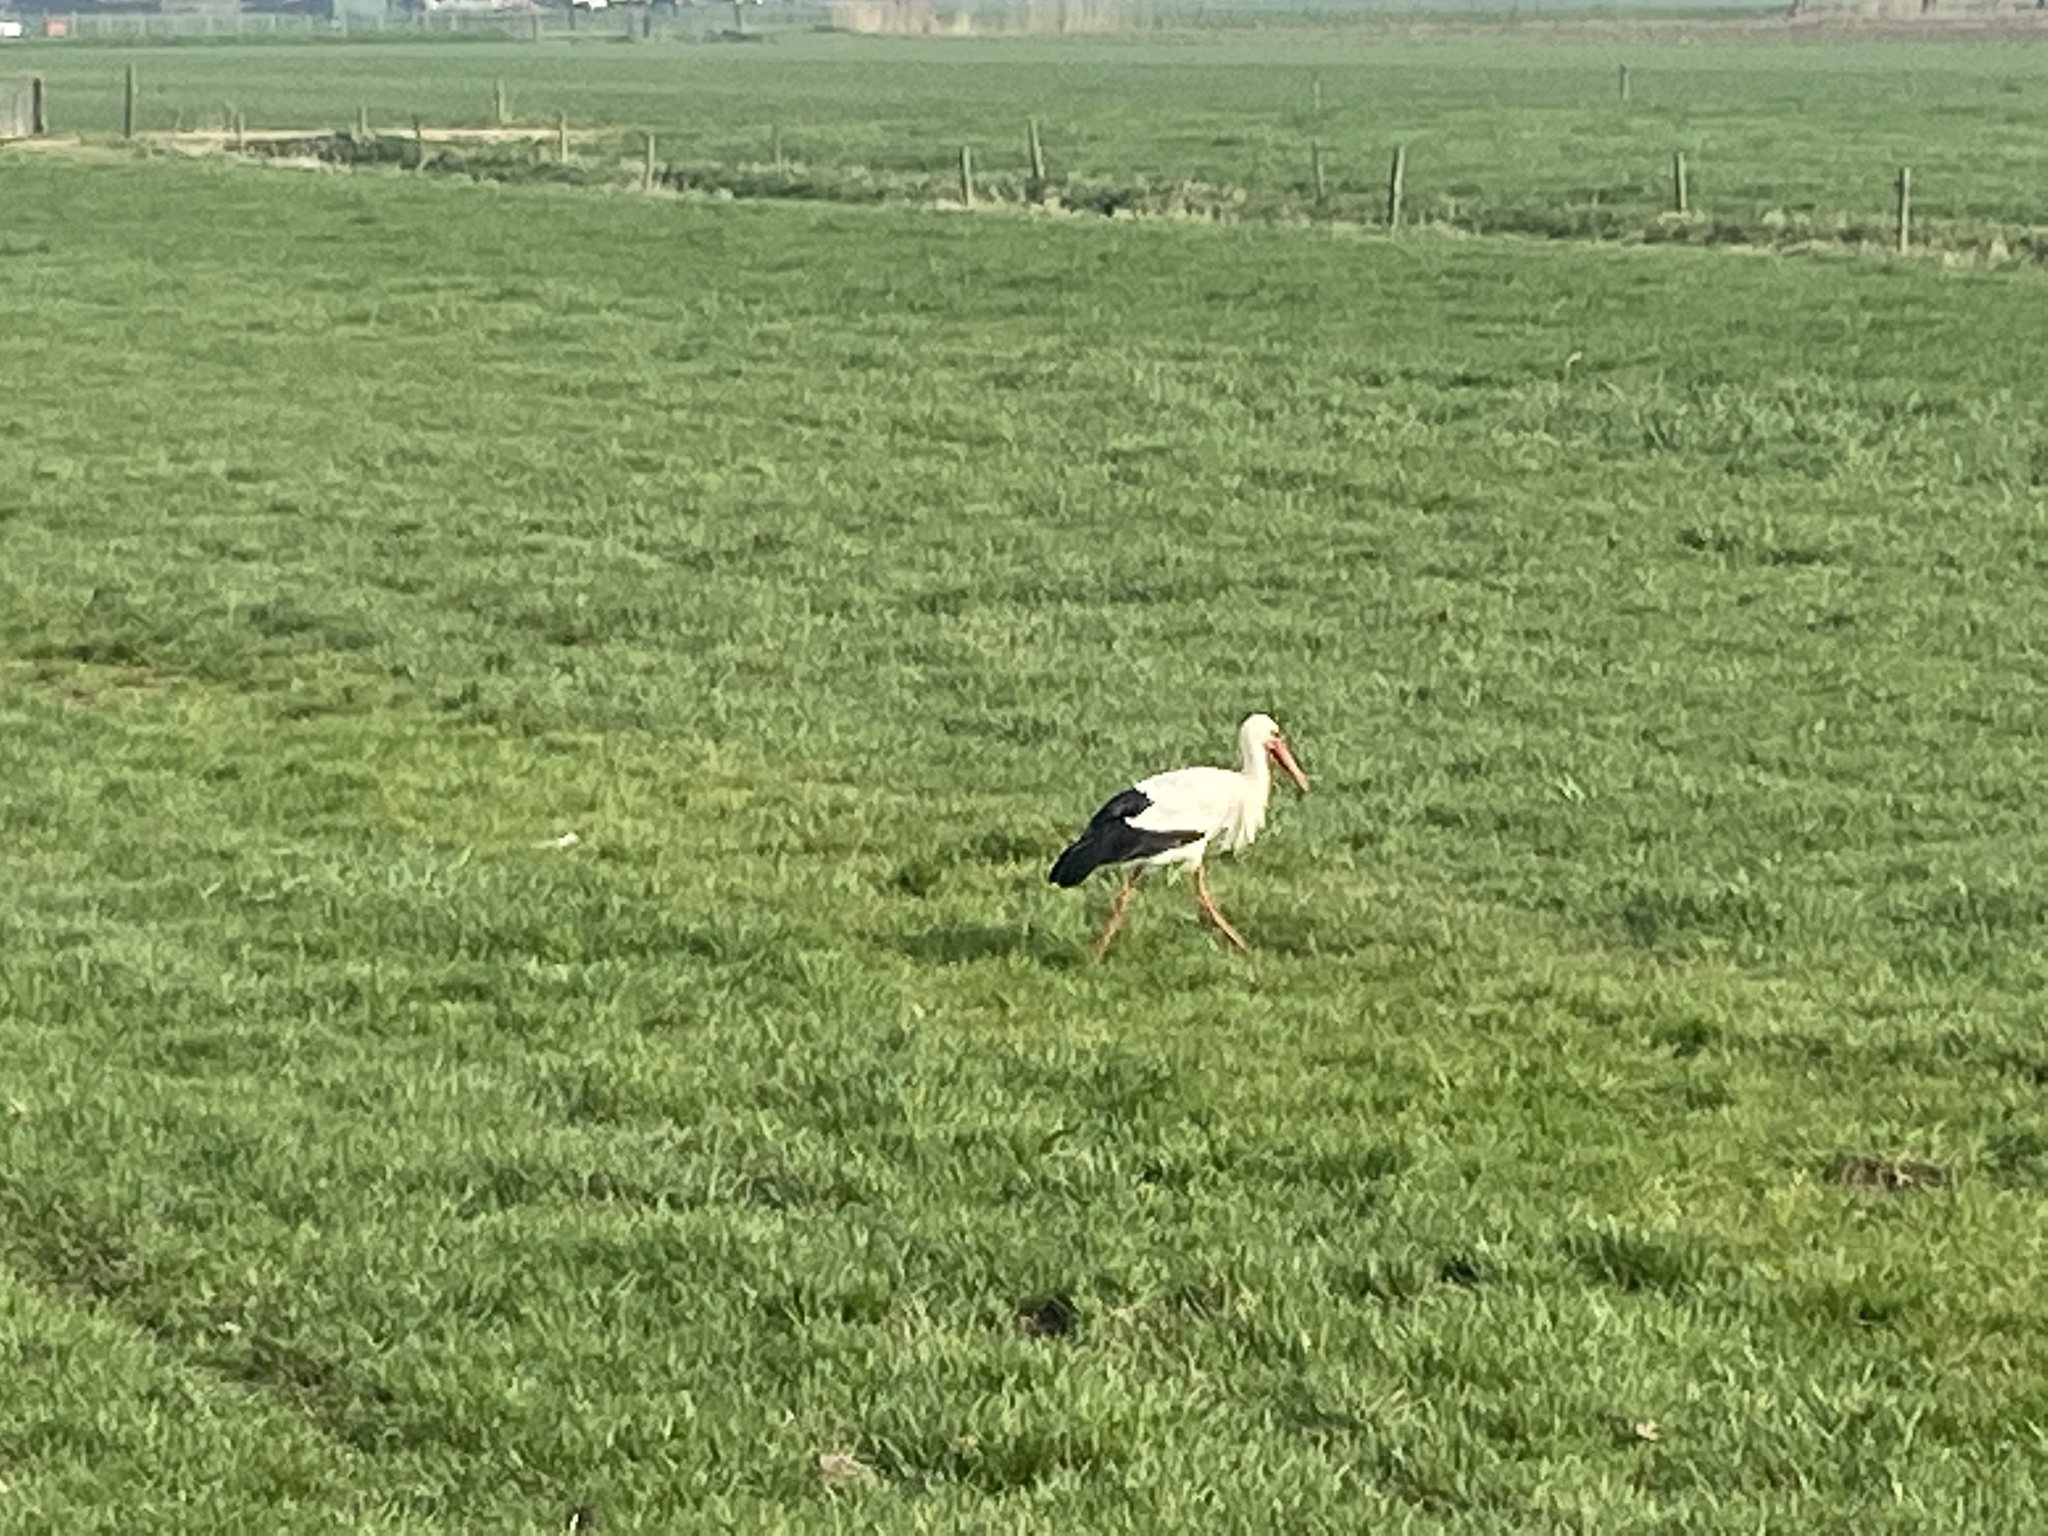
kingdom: Animalia
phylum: Chordata
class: Aves
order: Ciconiiformes
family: Ciconiidae
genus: Ciconia
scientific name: Ciconia ciconia
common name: White stork
